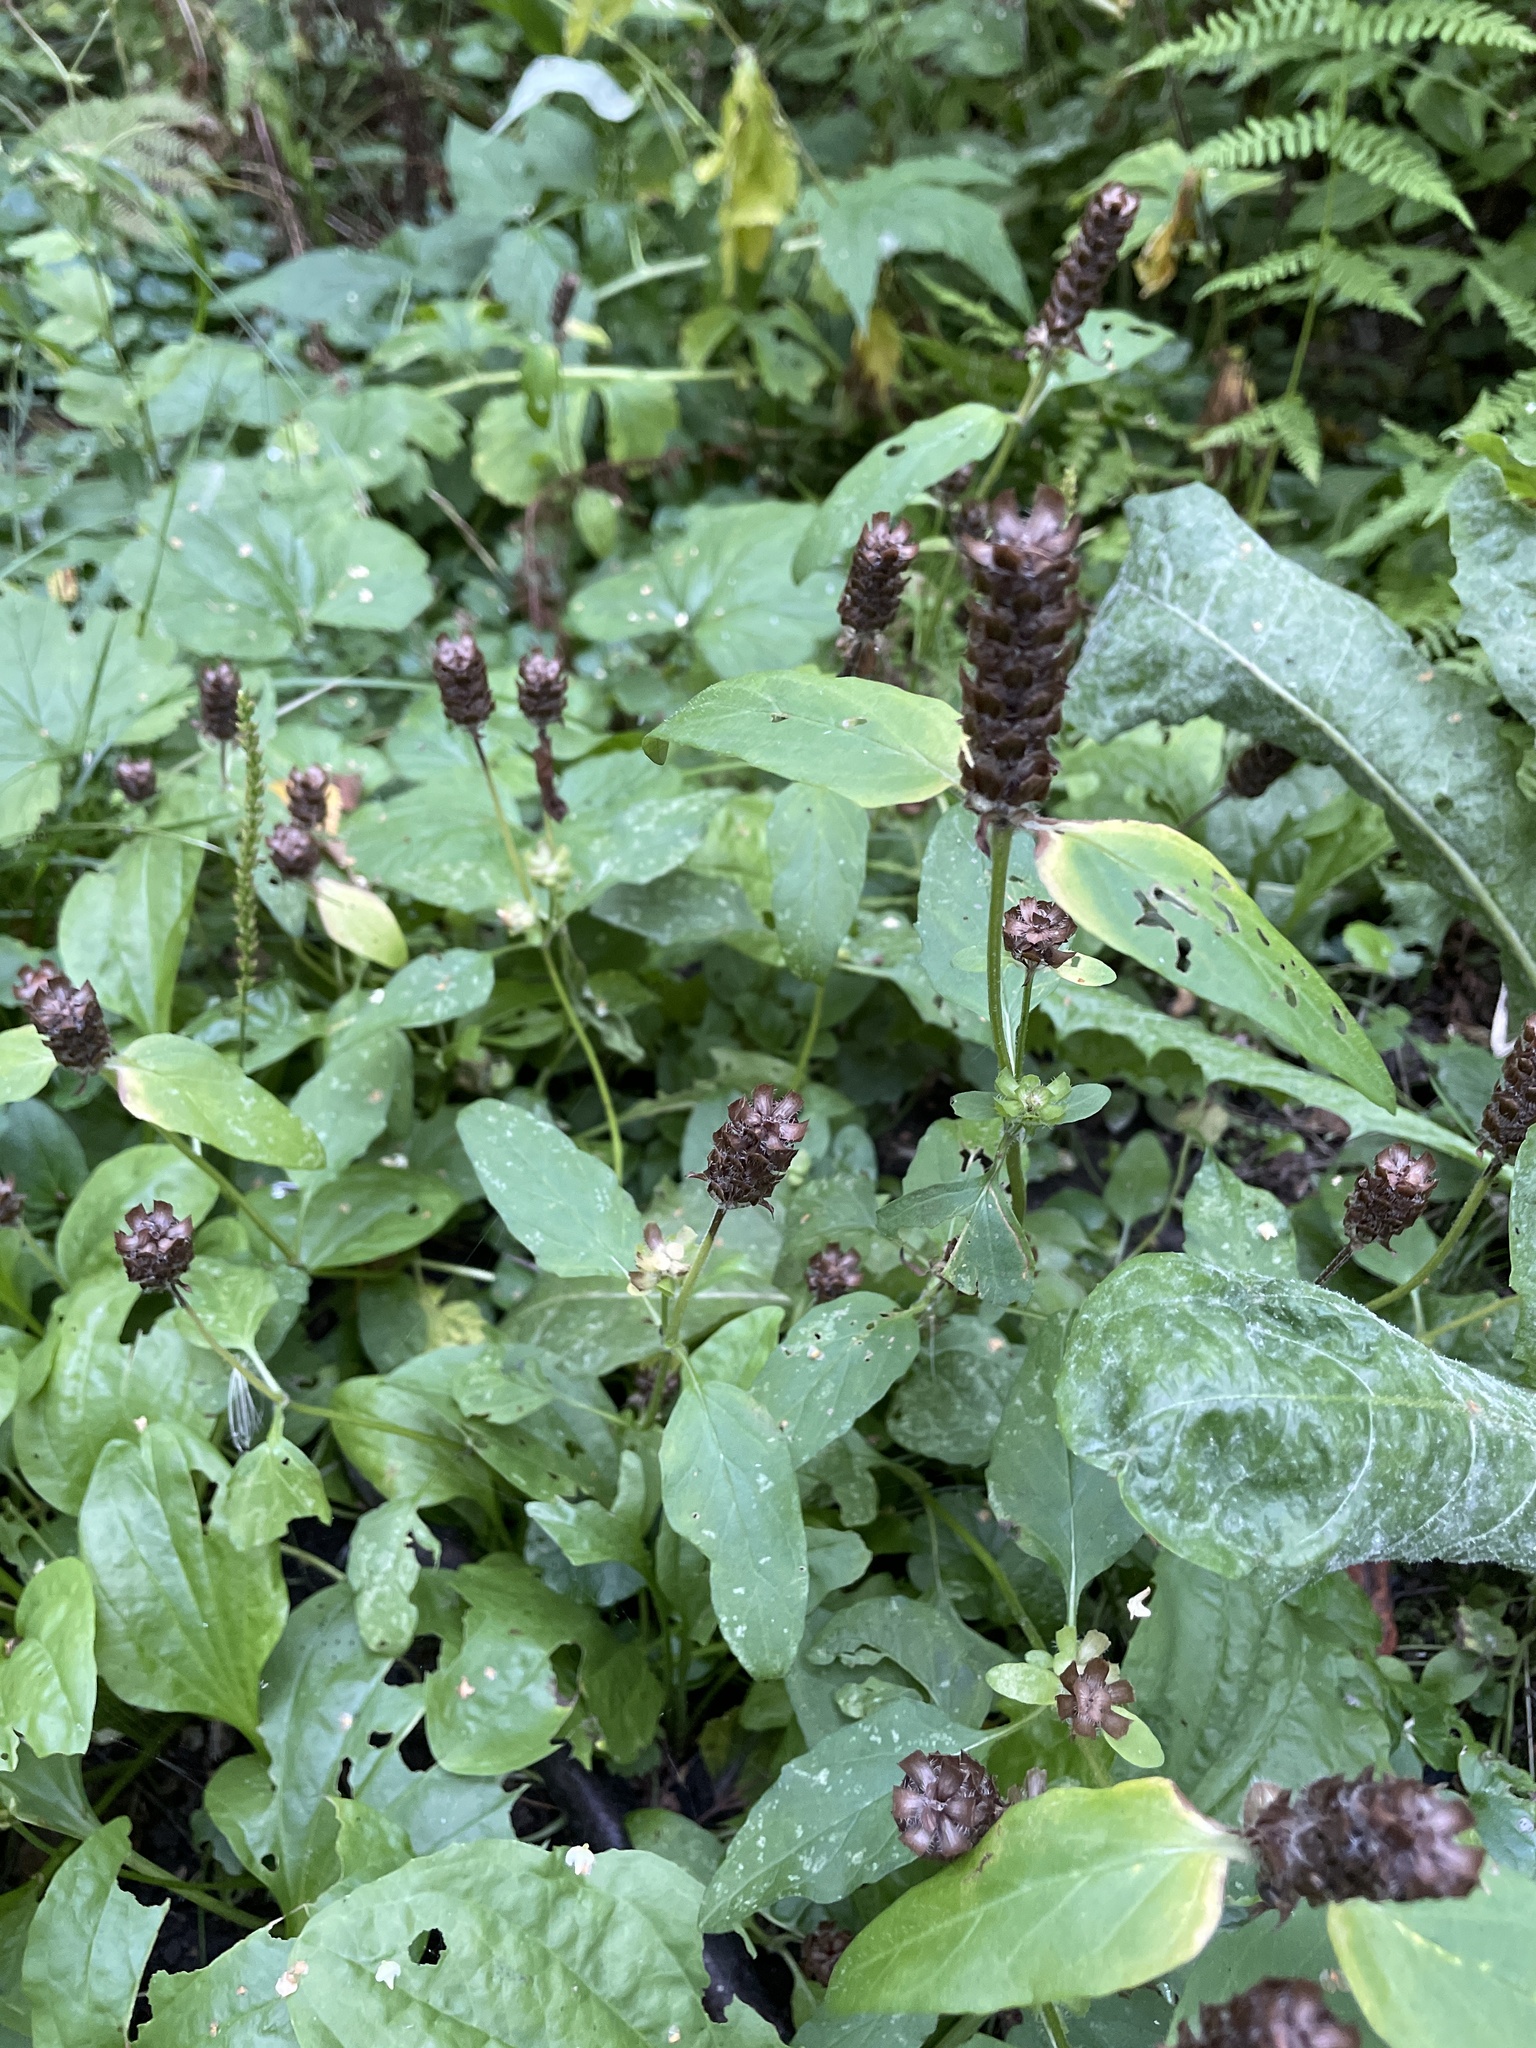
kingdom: Plantae
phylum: Tracheophyta
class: Magnoliopsida
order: Lamiales
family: Lamiaceae
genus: Prunella
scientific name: Prunella vulgaris
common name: Heal-all
